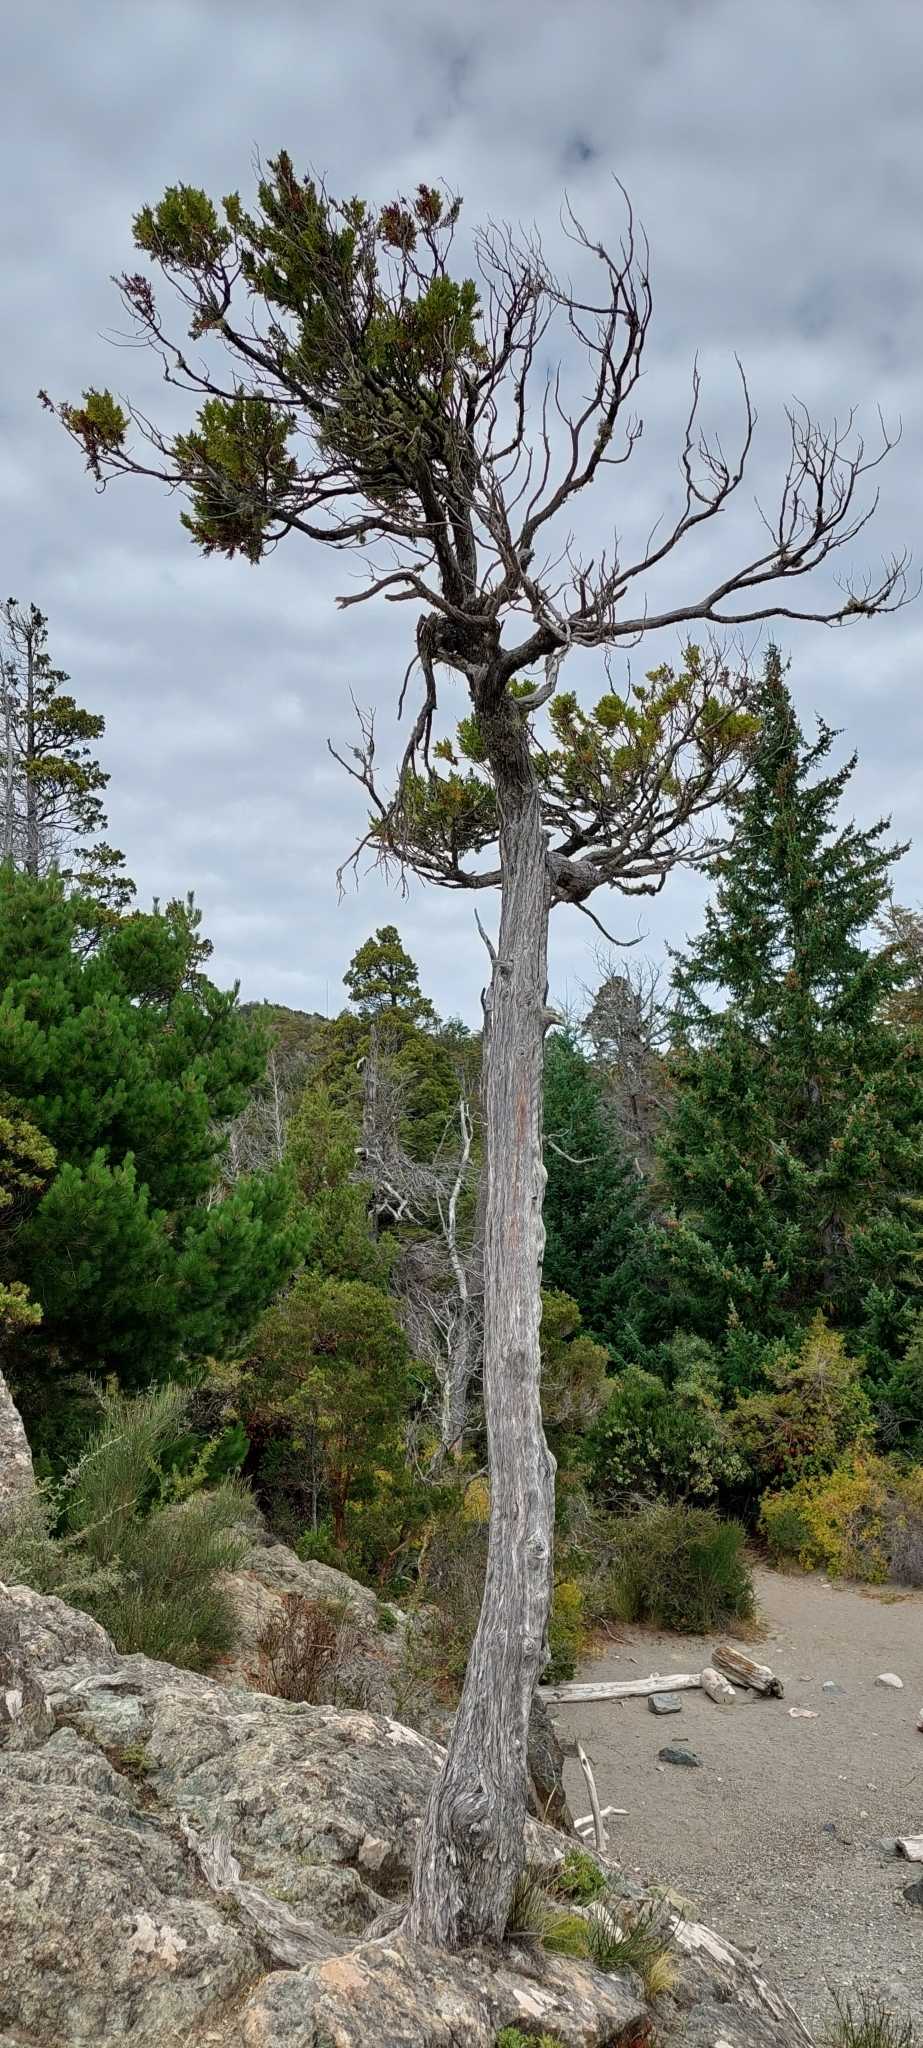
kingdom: Plantae
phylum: Tracheophyta
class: Pinopsida
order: Pinales
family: Cupressaceae
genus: Austrocedrus
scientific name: Austrocedrus chilensis
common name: Chilean incense-cedar
